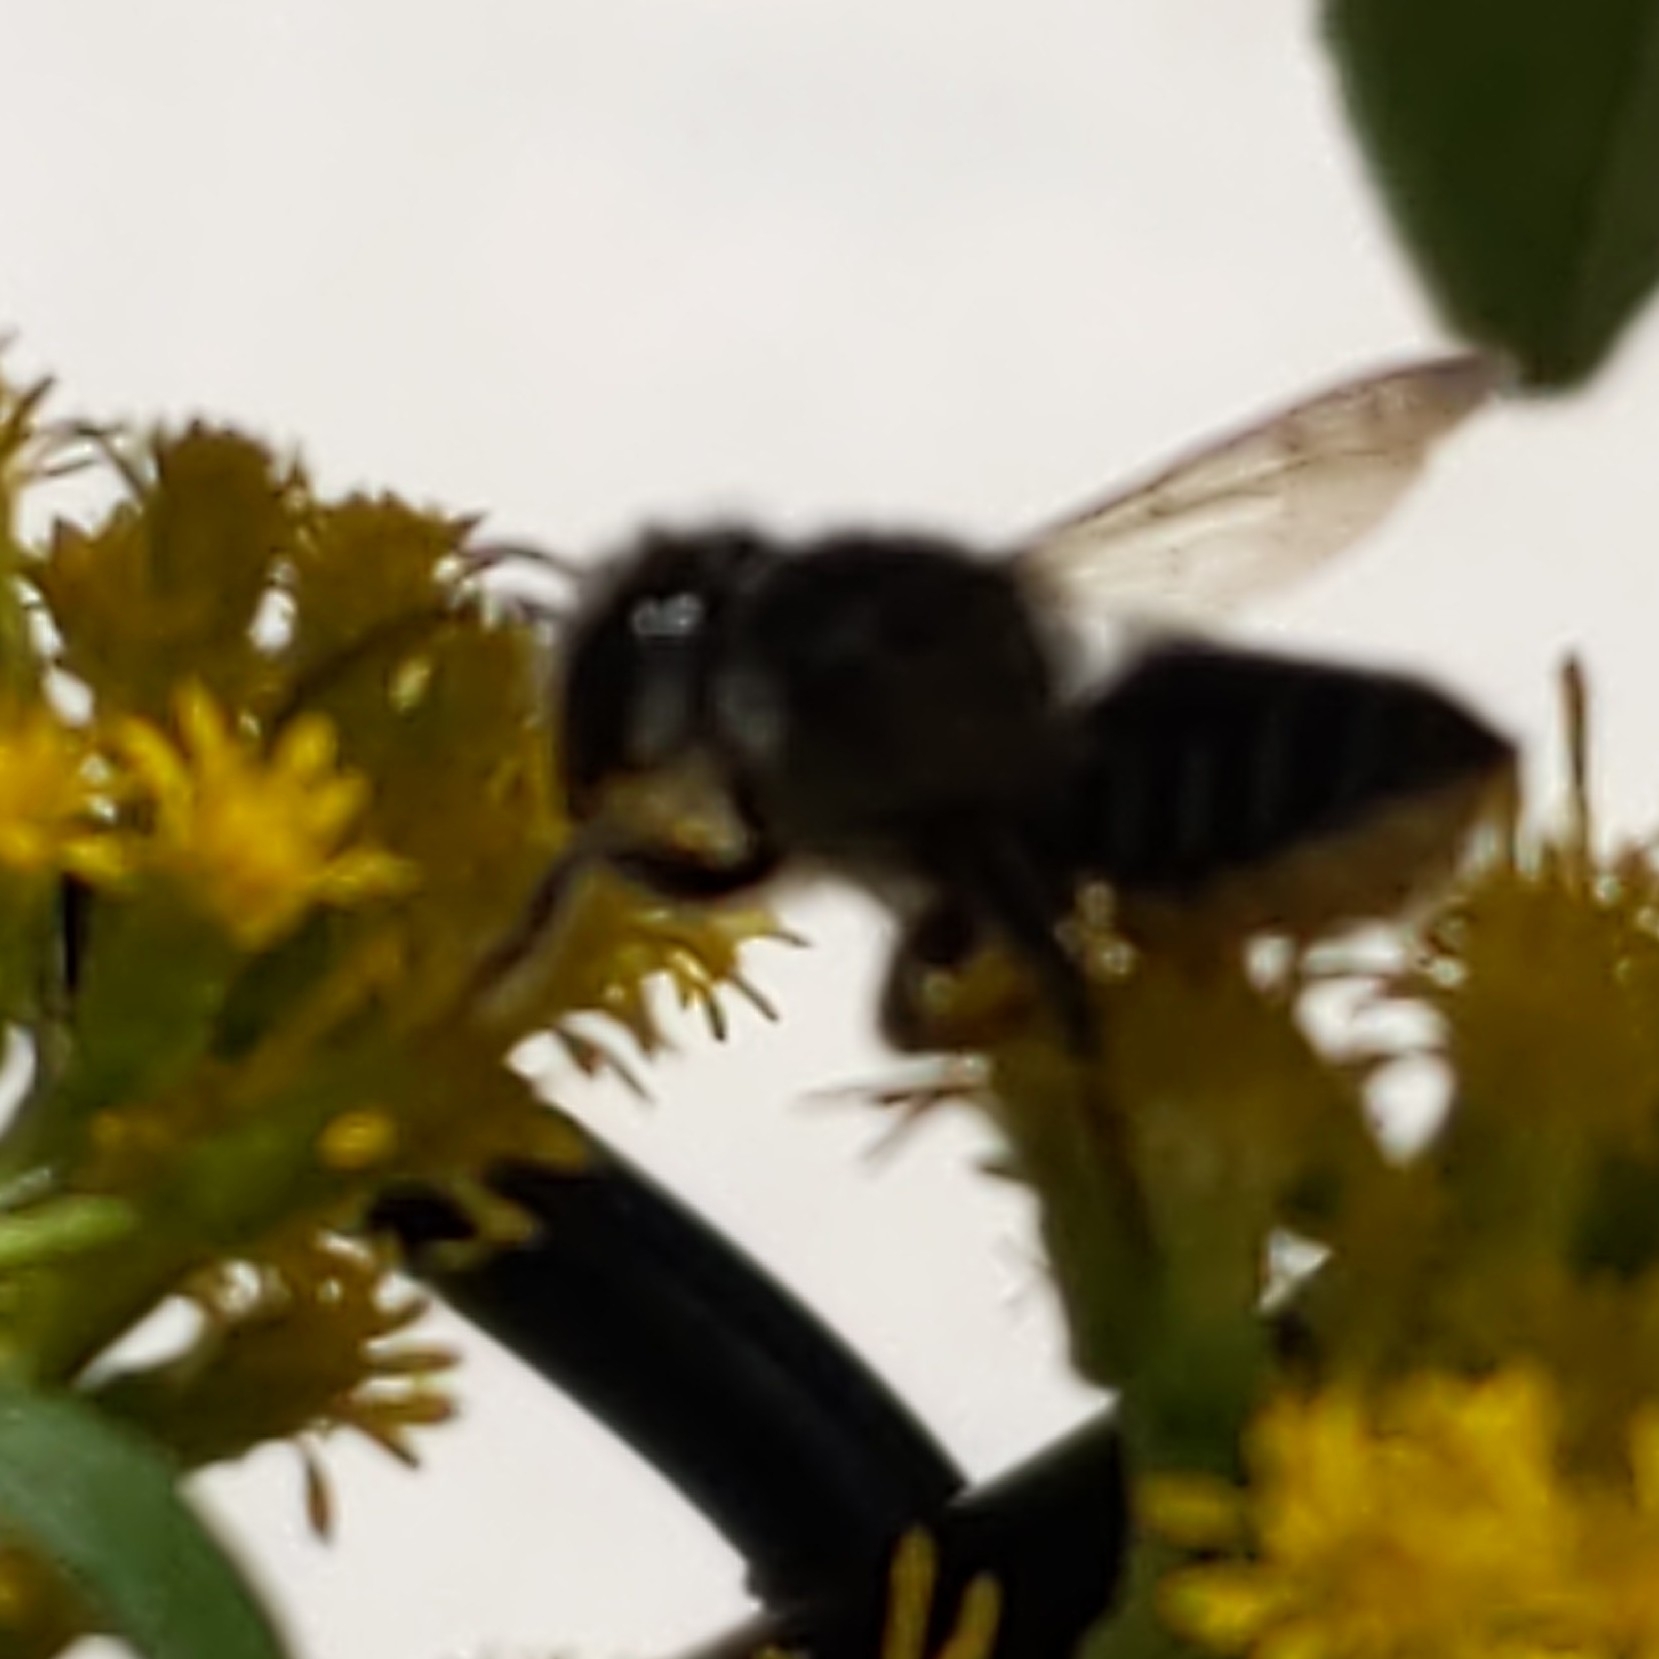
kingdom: Animalia
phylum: Arthropoda
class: Insecta
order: Hymenoptera
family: Megachilidae
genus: Megachile
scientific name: Megachile
